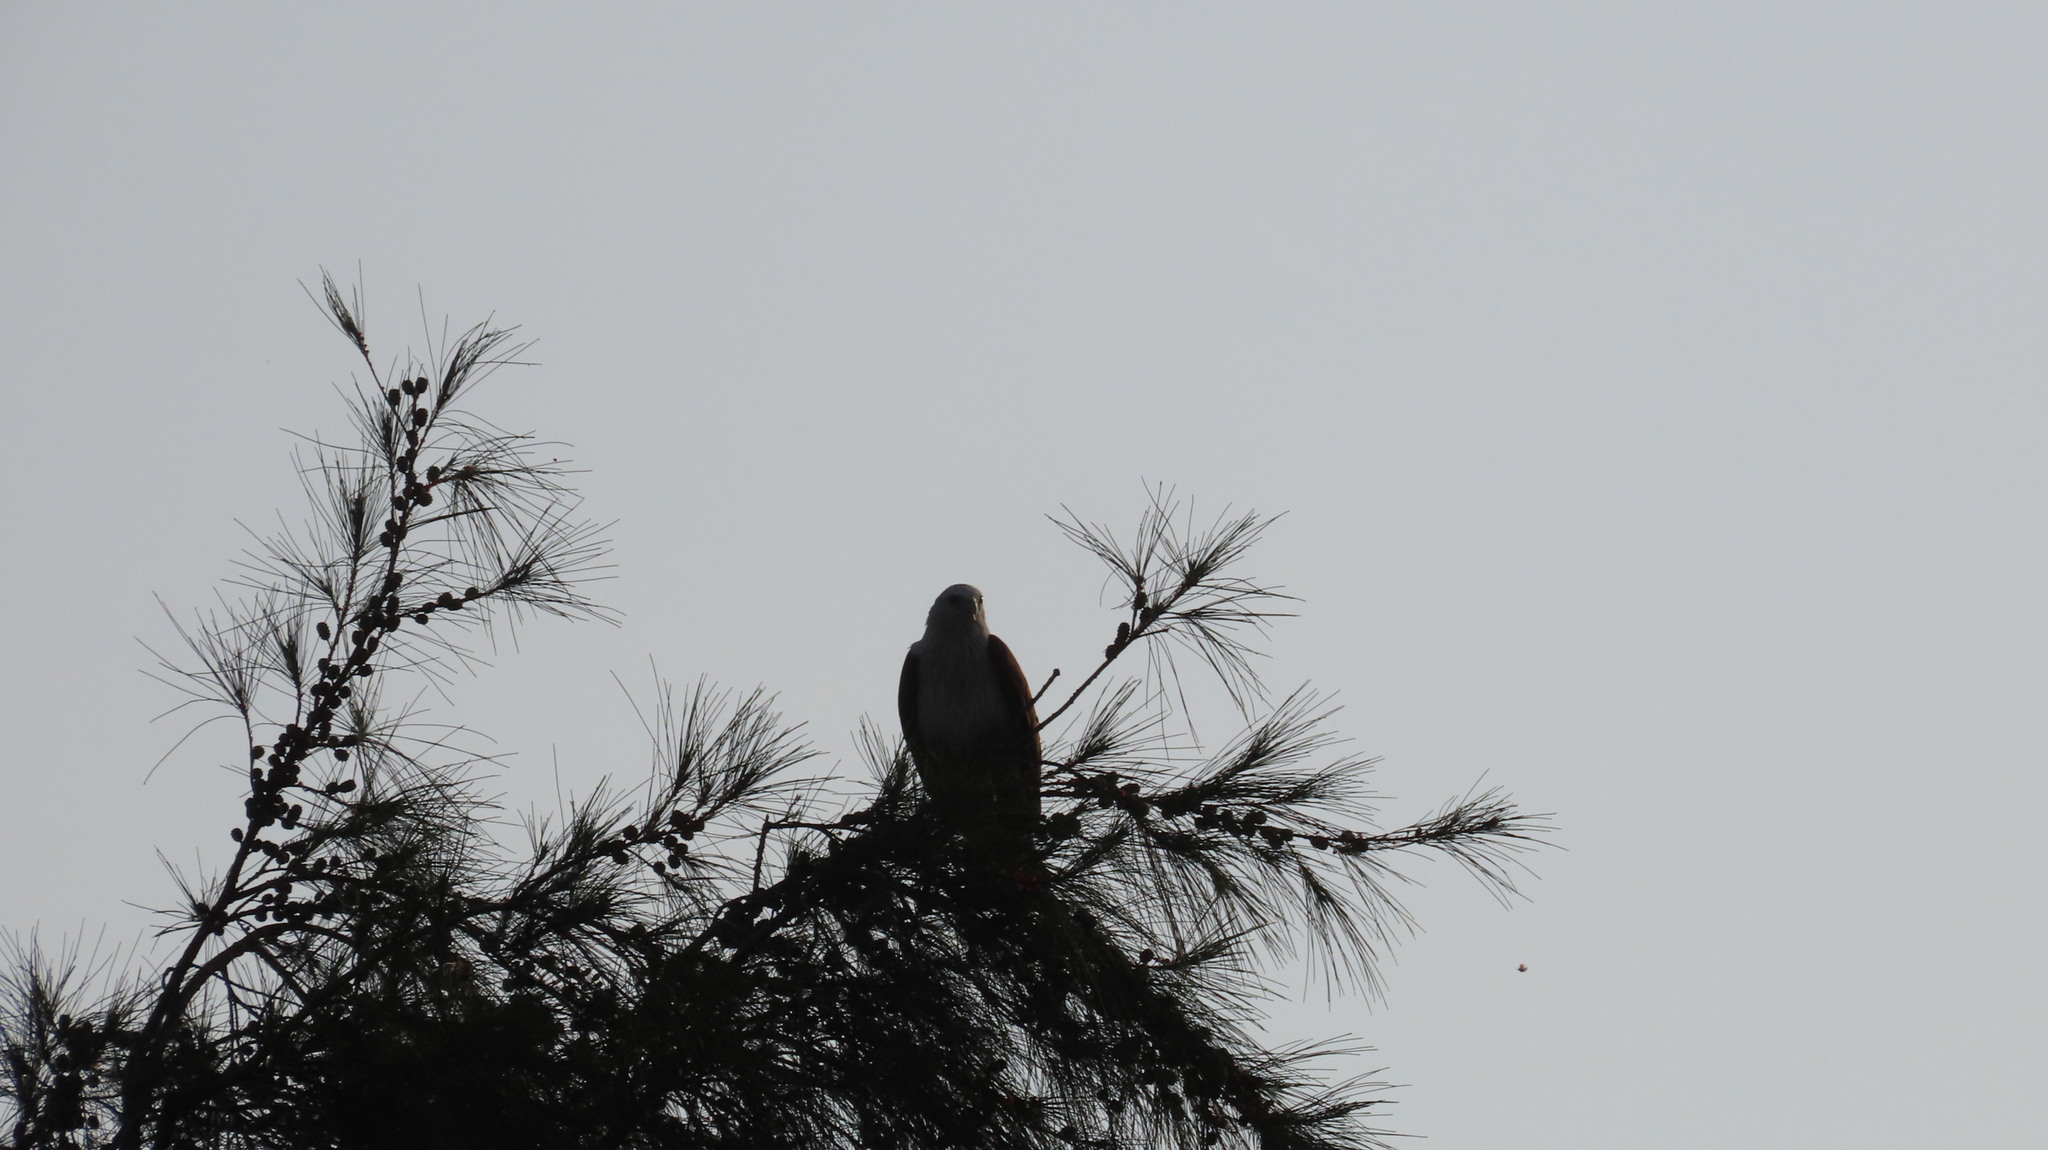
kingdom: Animalia
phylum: Chordata
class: Aves
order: Accipitriformes
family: Accipitridae
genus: Haliastur
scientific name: Haliastur indus
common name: Brahminy kite
